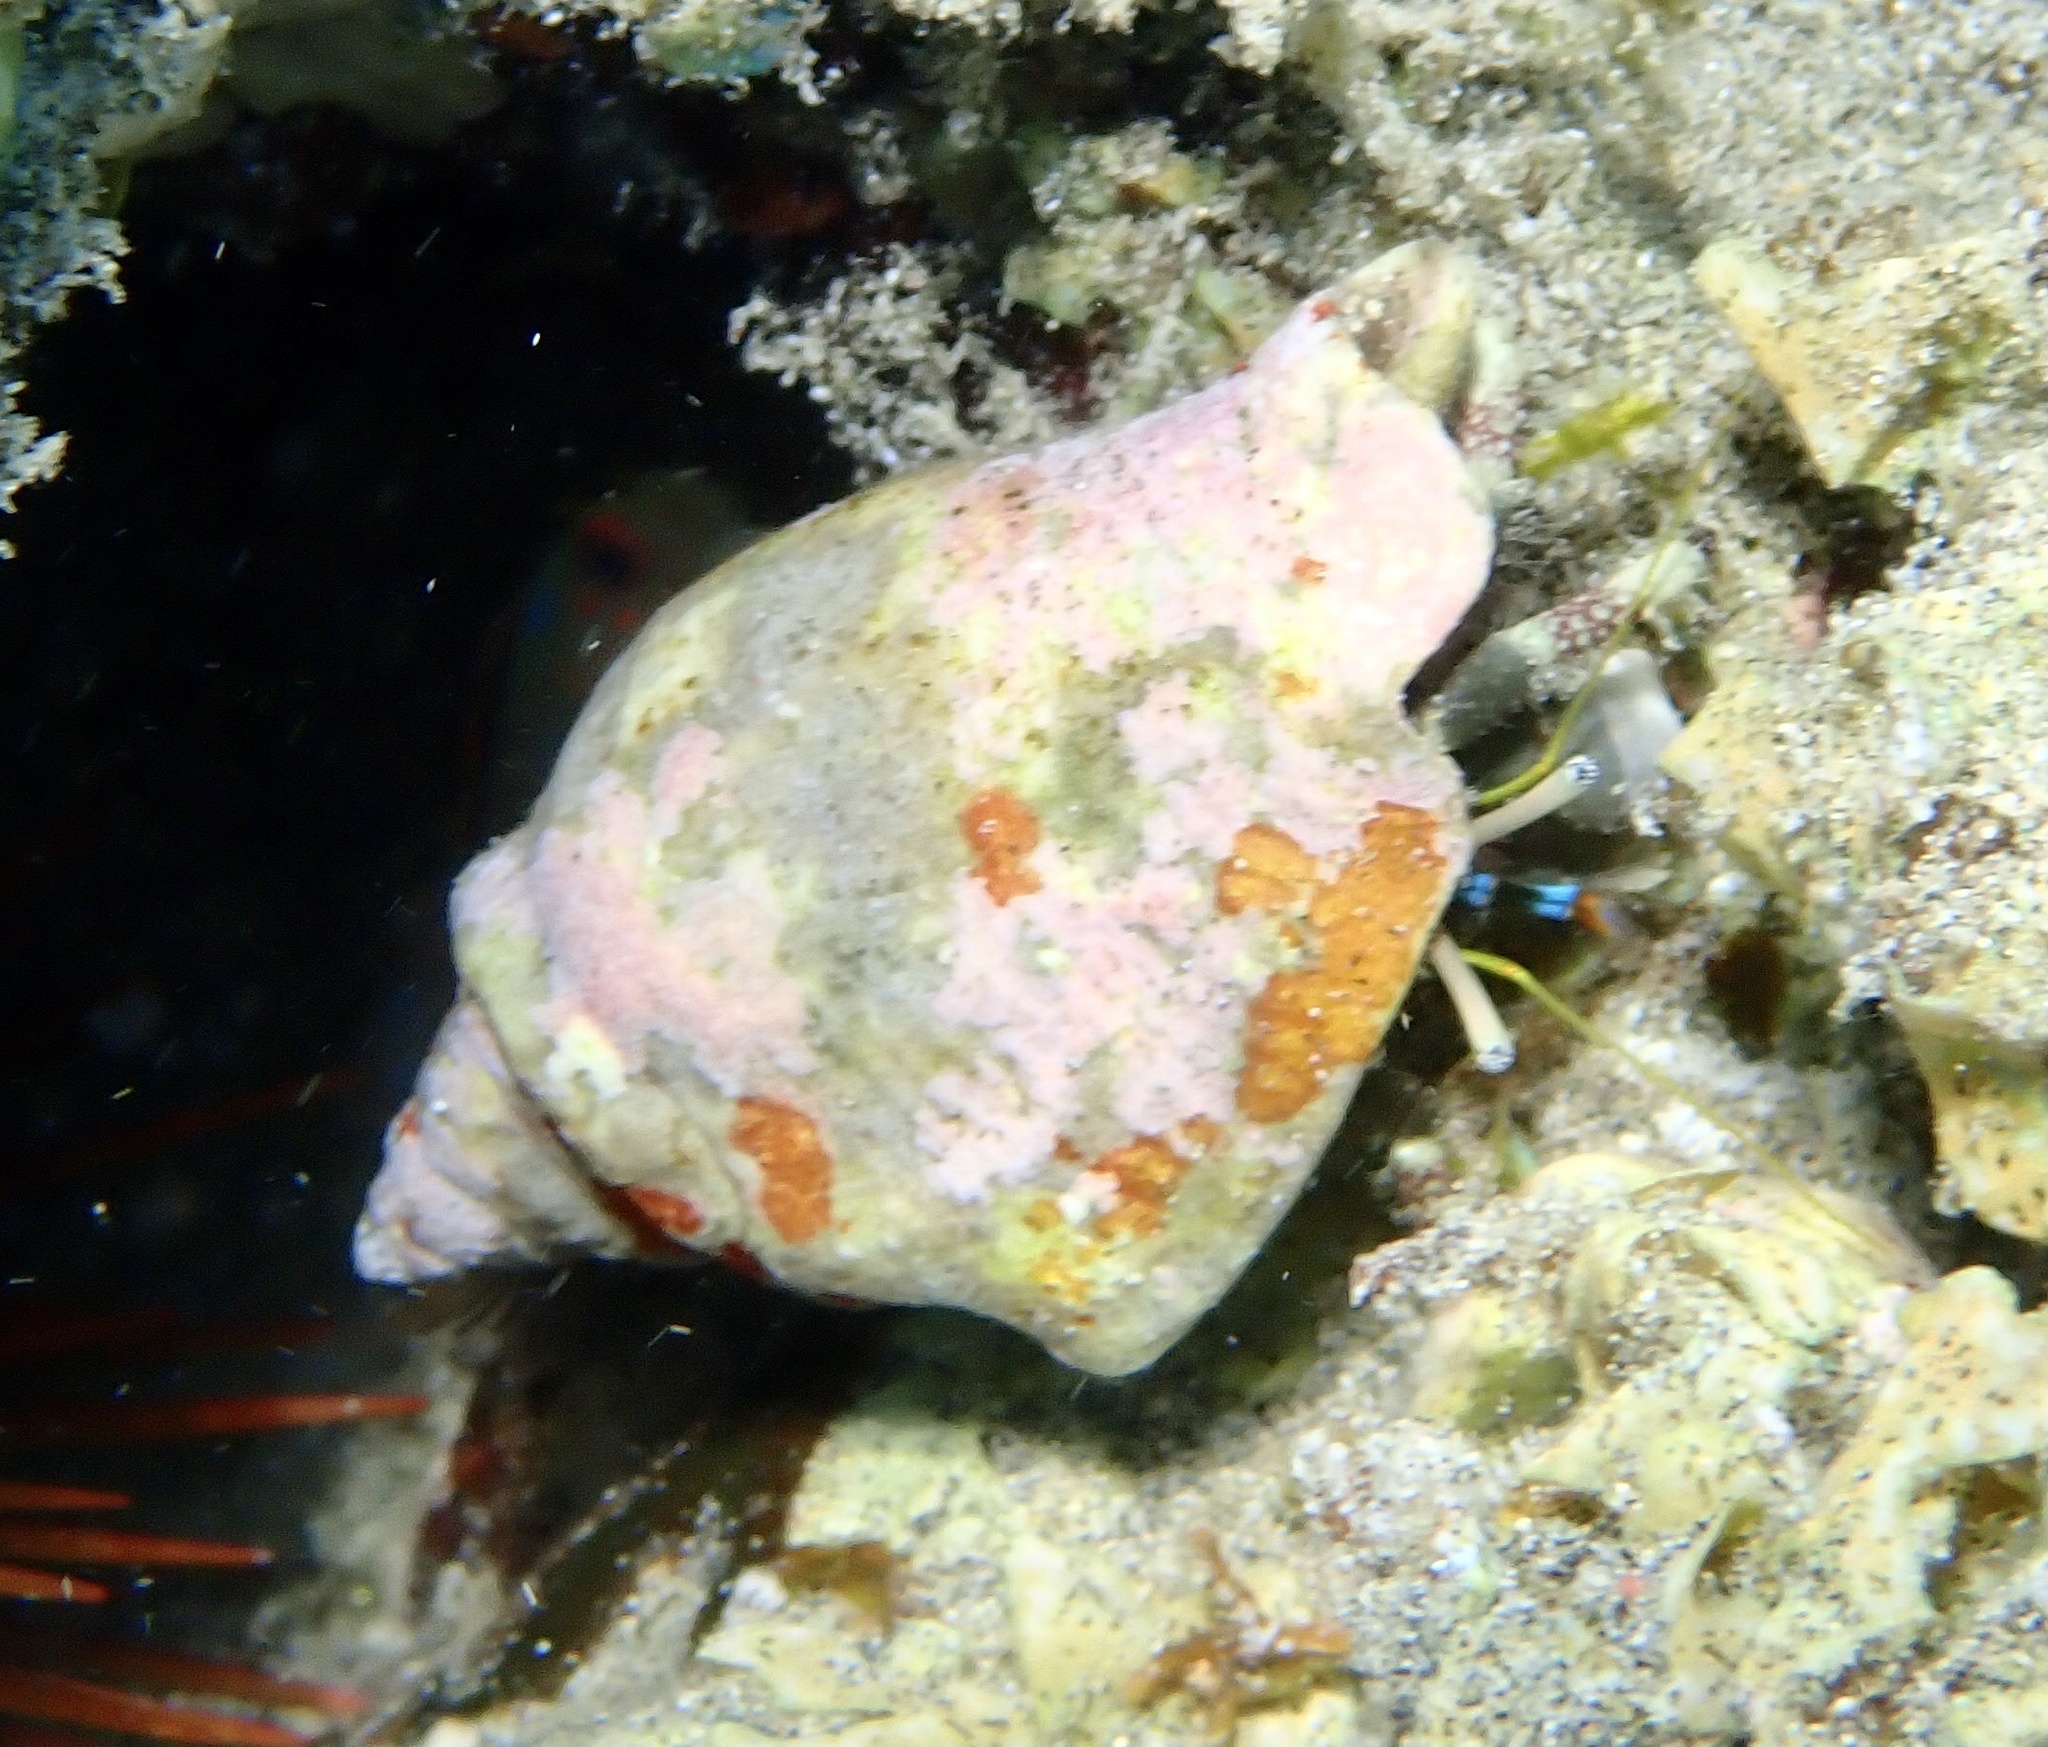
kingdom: Animalia
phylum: Arthropoda
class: Malacostraca
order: Decapoda
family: Diogenidae
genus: Calcinus
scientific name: Calcinus latens
